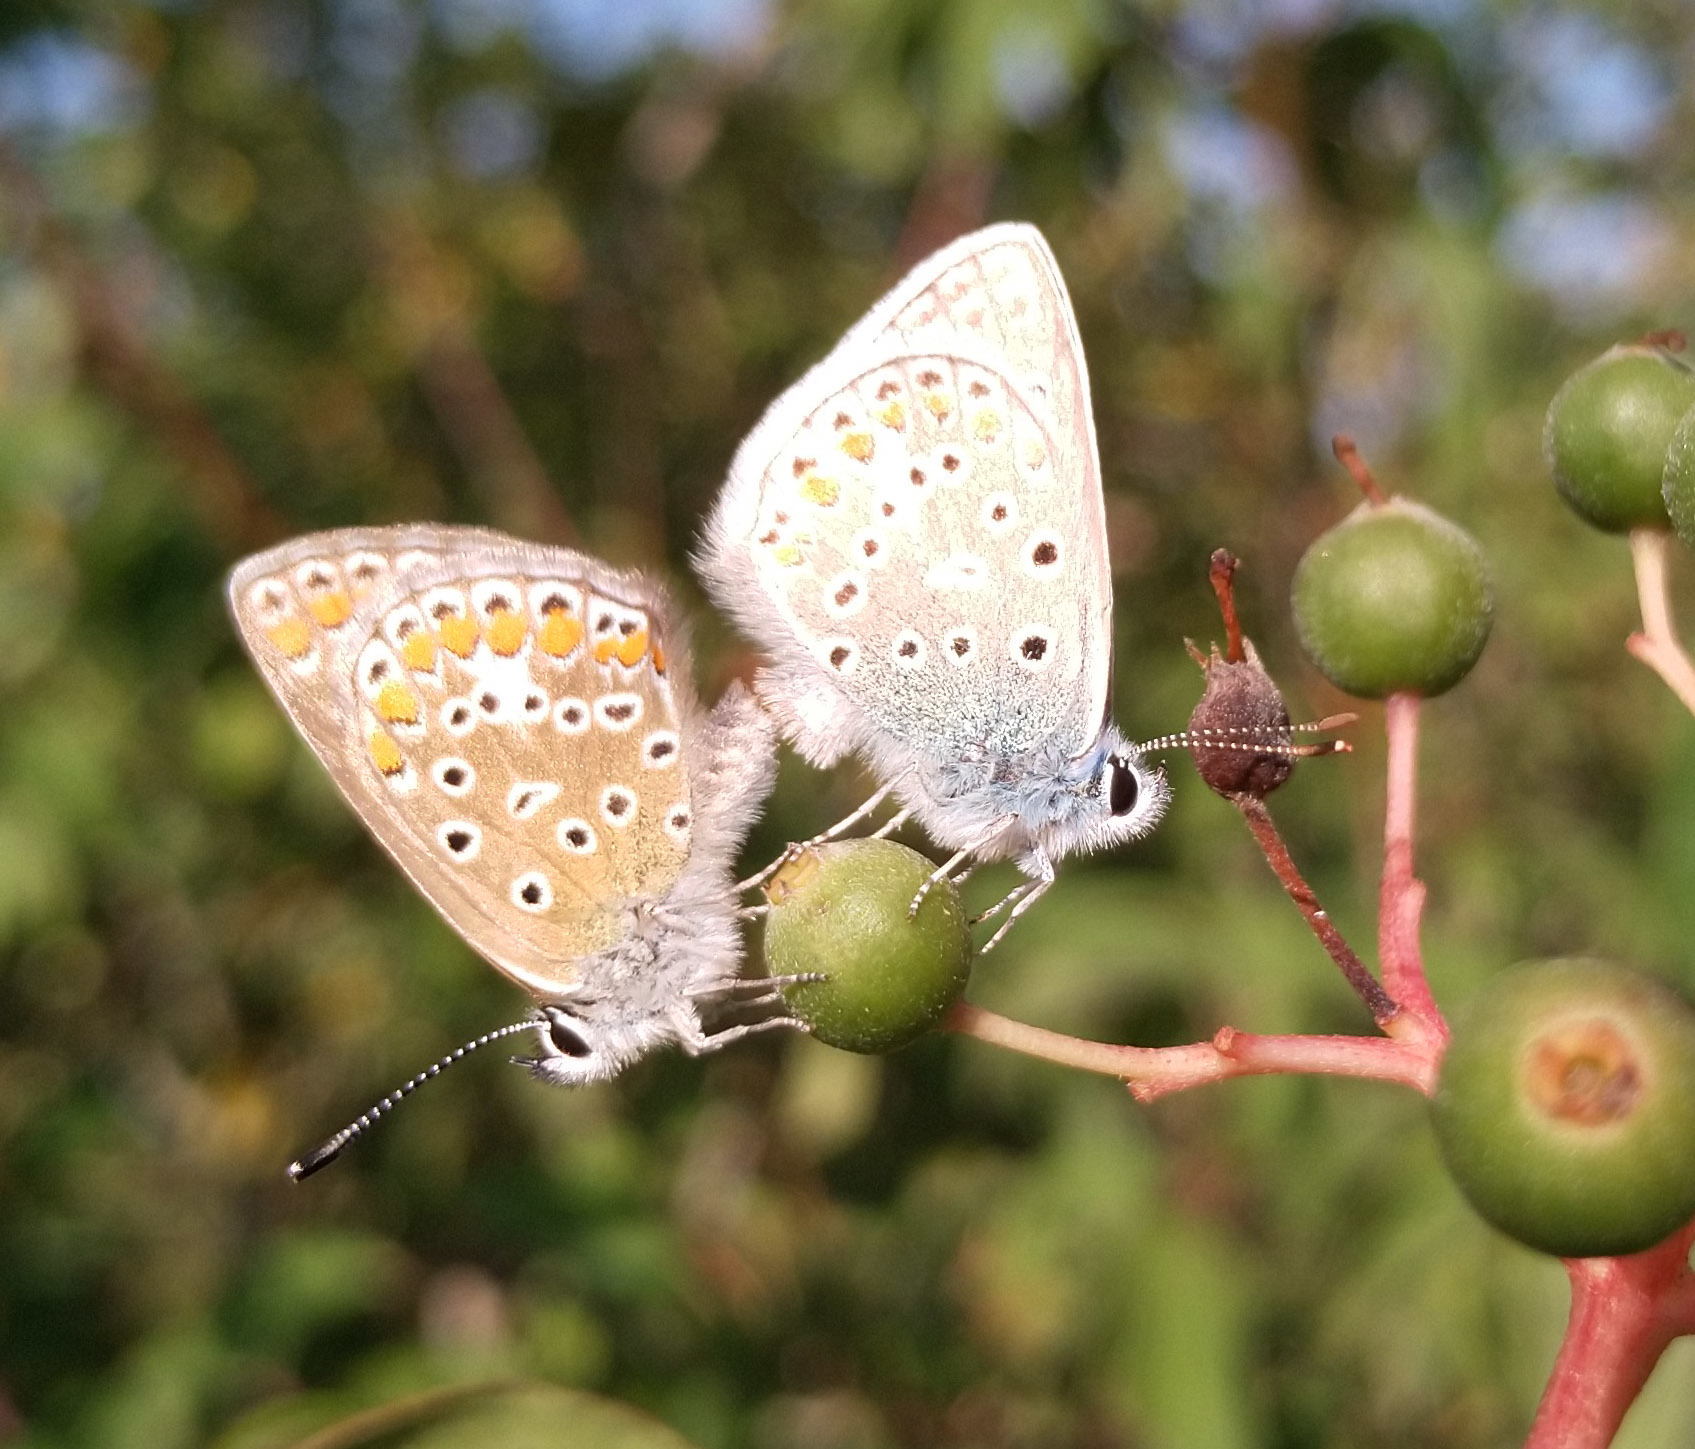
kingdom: Animalia
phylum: Arthropoda
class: Insecta
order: Lepidoptera
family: Lycaenidae
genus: Polyommatus
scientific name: Polyommatus icarus
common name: Common blue
